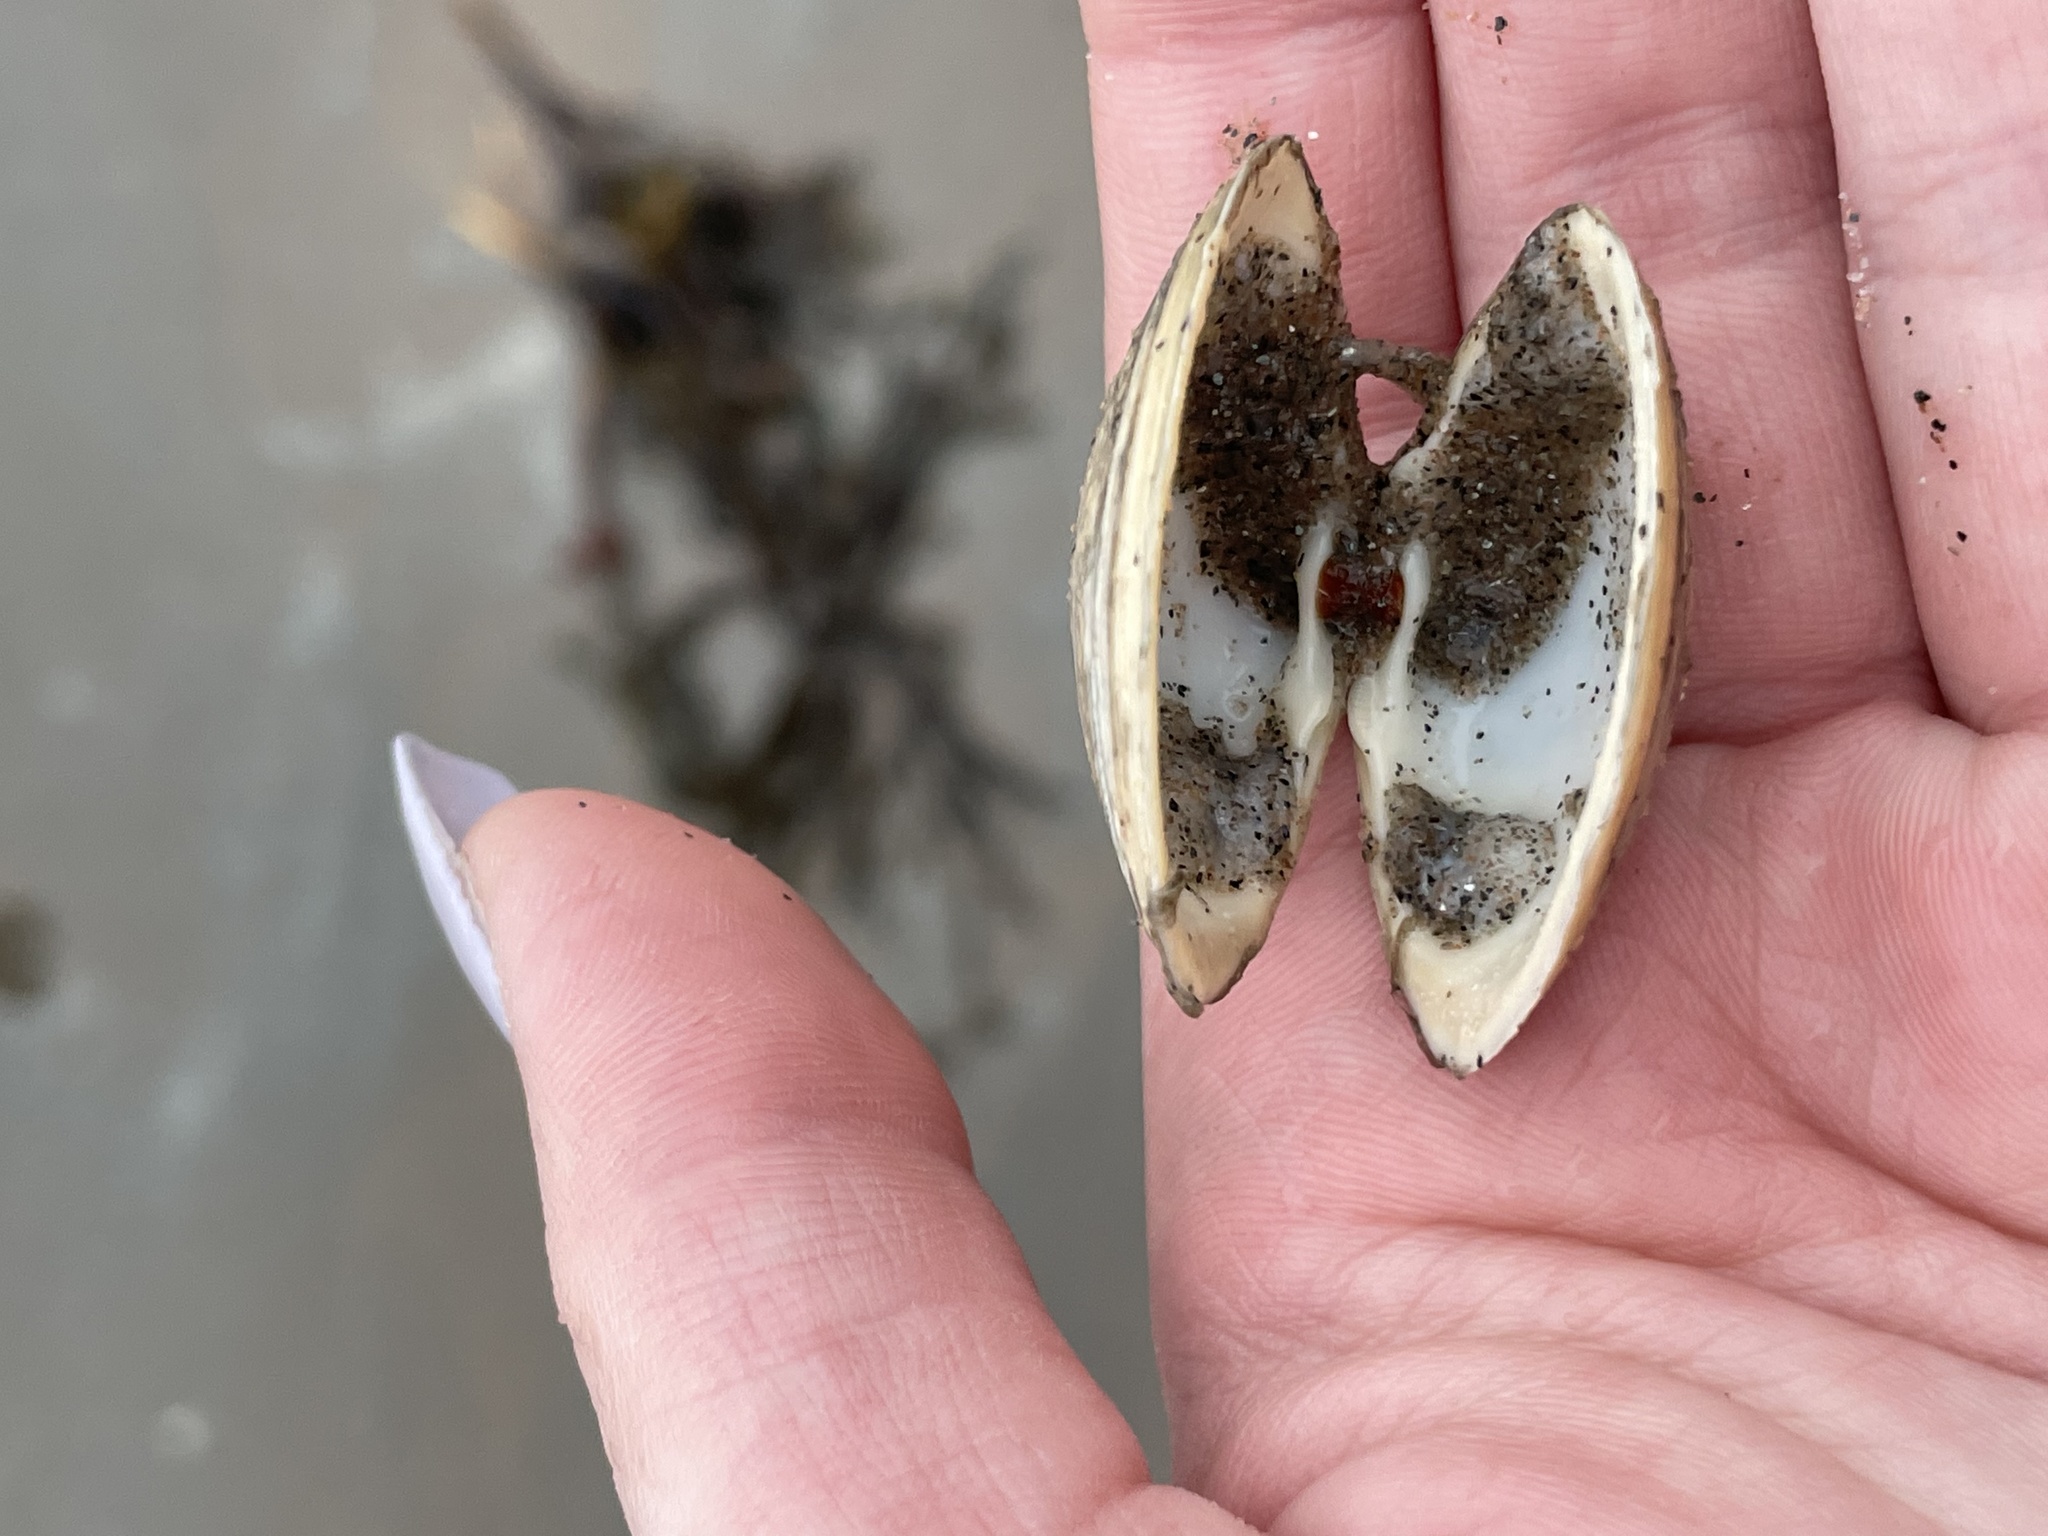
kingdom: Animalia
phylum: Mollusca
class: Bivalvia
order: Venerida
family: Mactridae
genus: Spisula
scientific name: Spisula solidissima
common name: Atlantic surf clam
